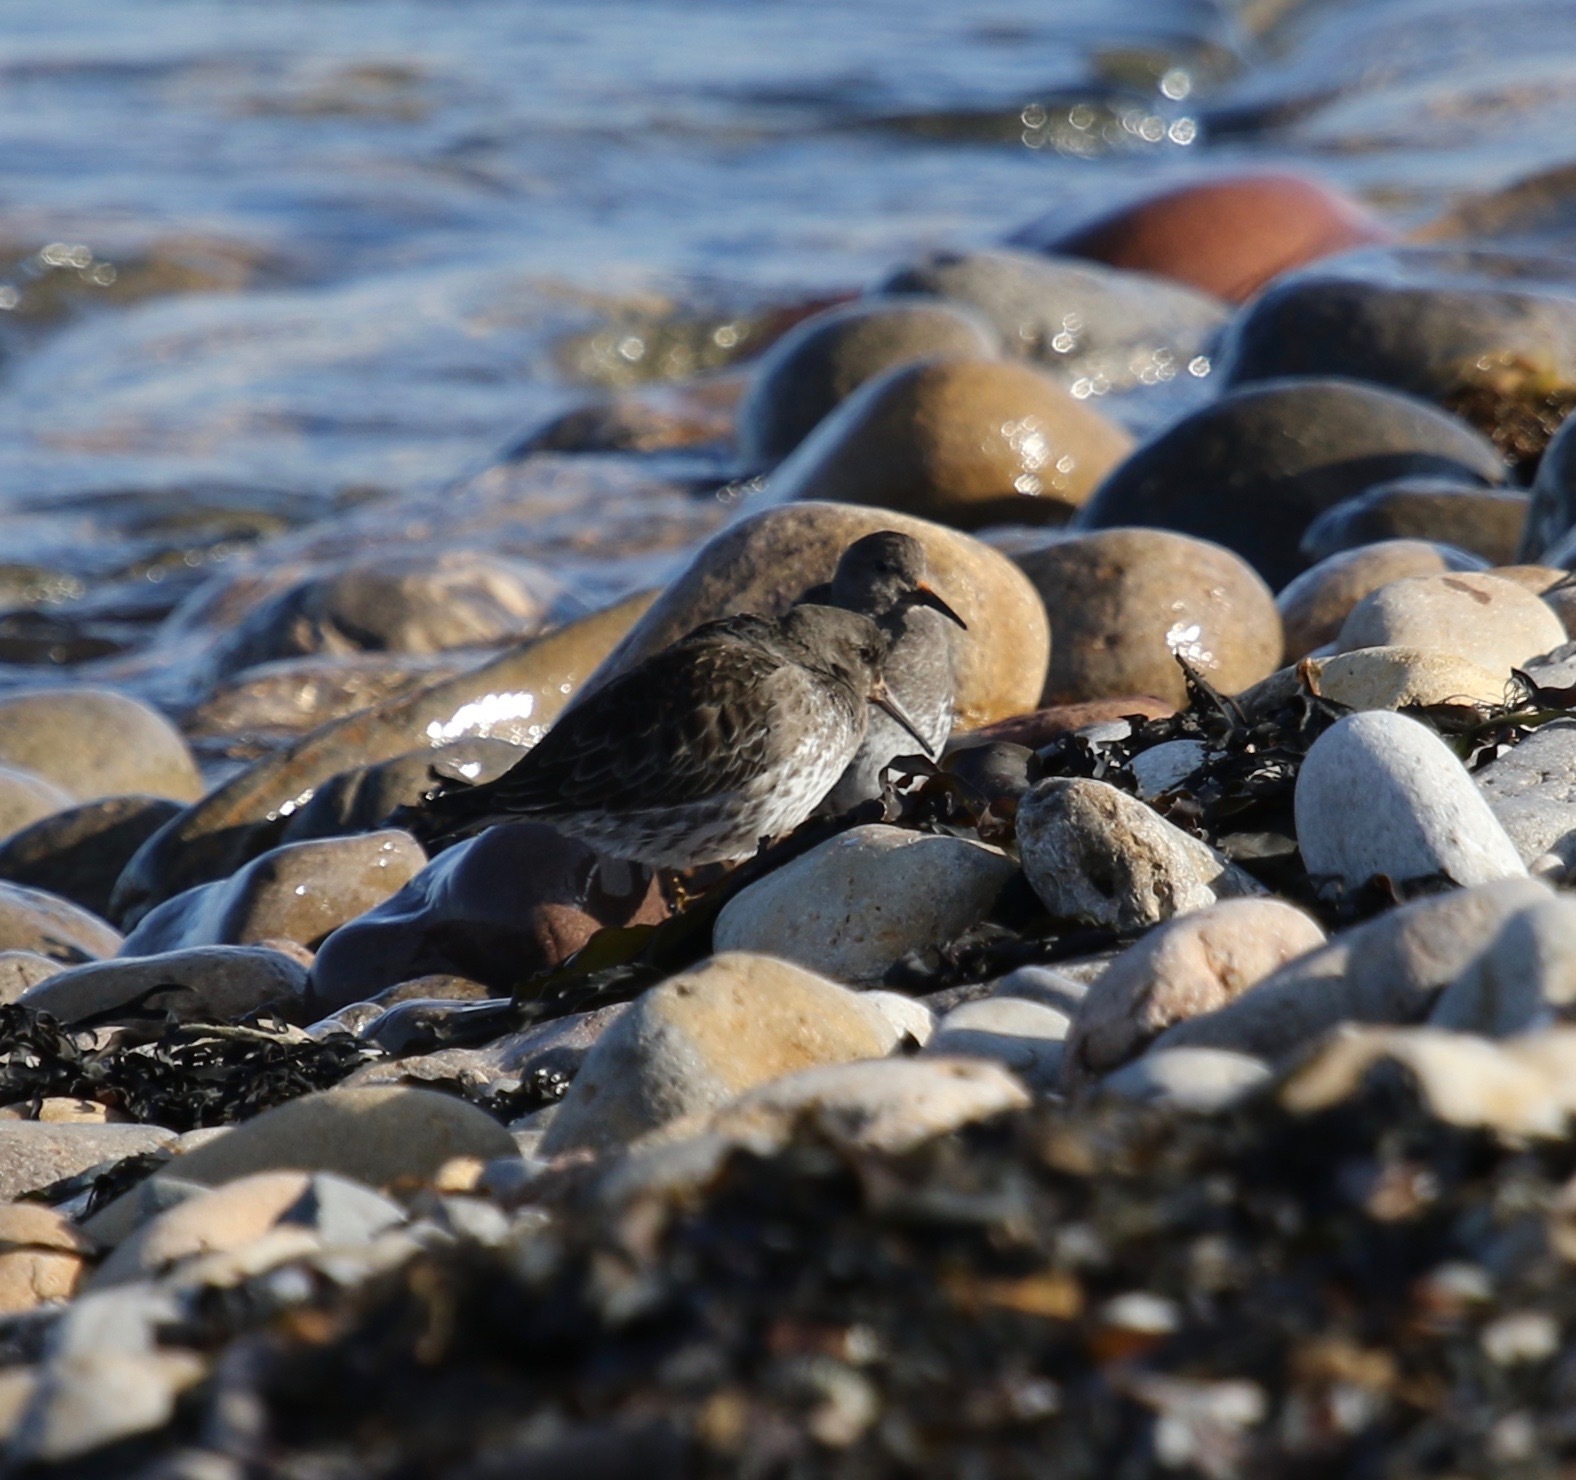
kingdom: Animalia
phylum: Chordata
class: Aves
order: Charadriiformes
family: Scolopacidae
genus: Calidris
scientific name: Calidris maritima
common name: Purple sandpiper
